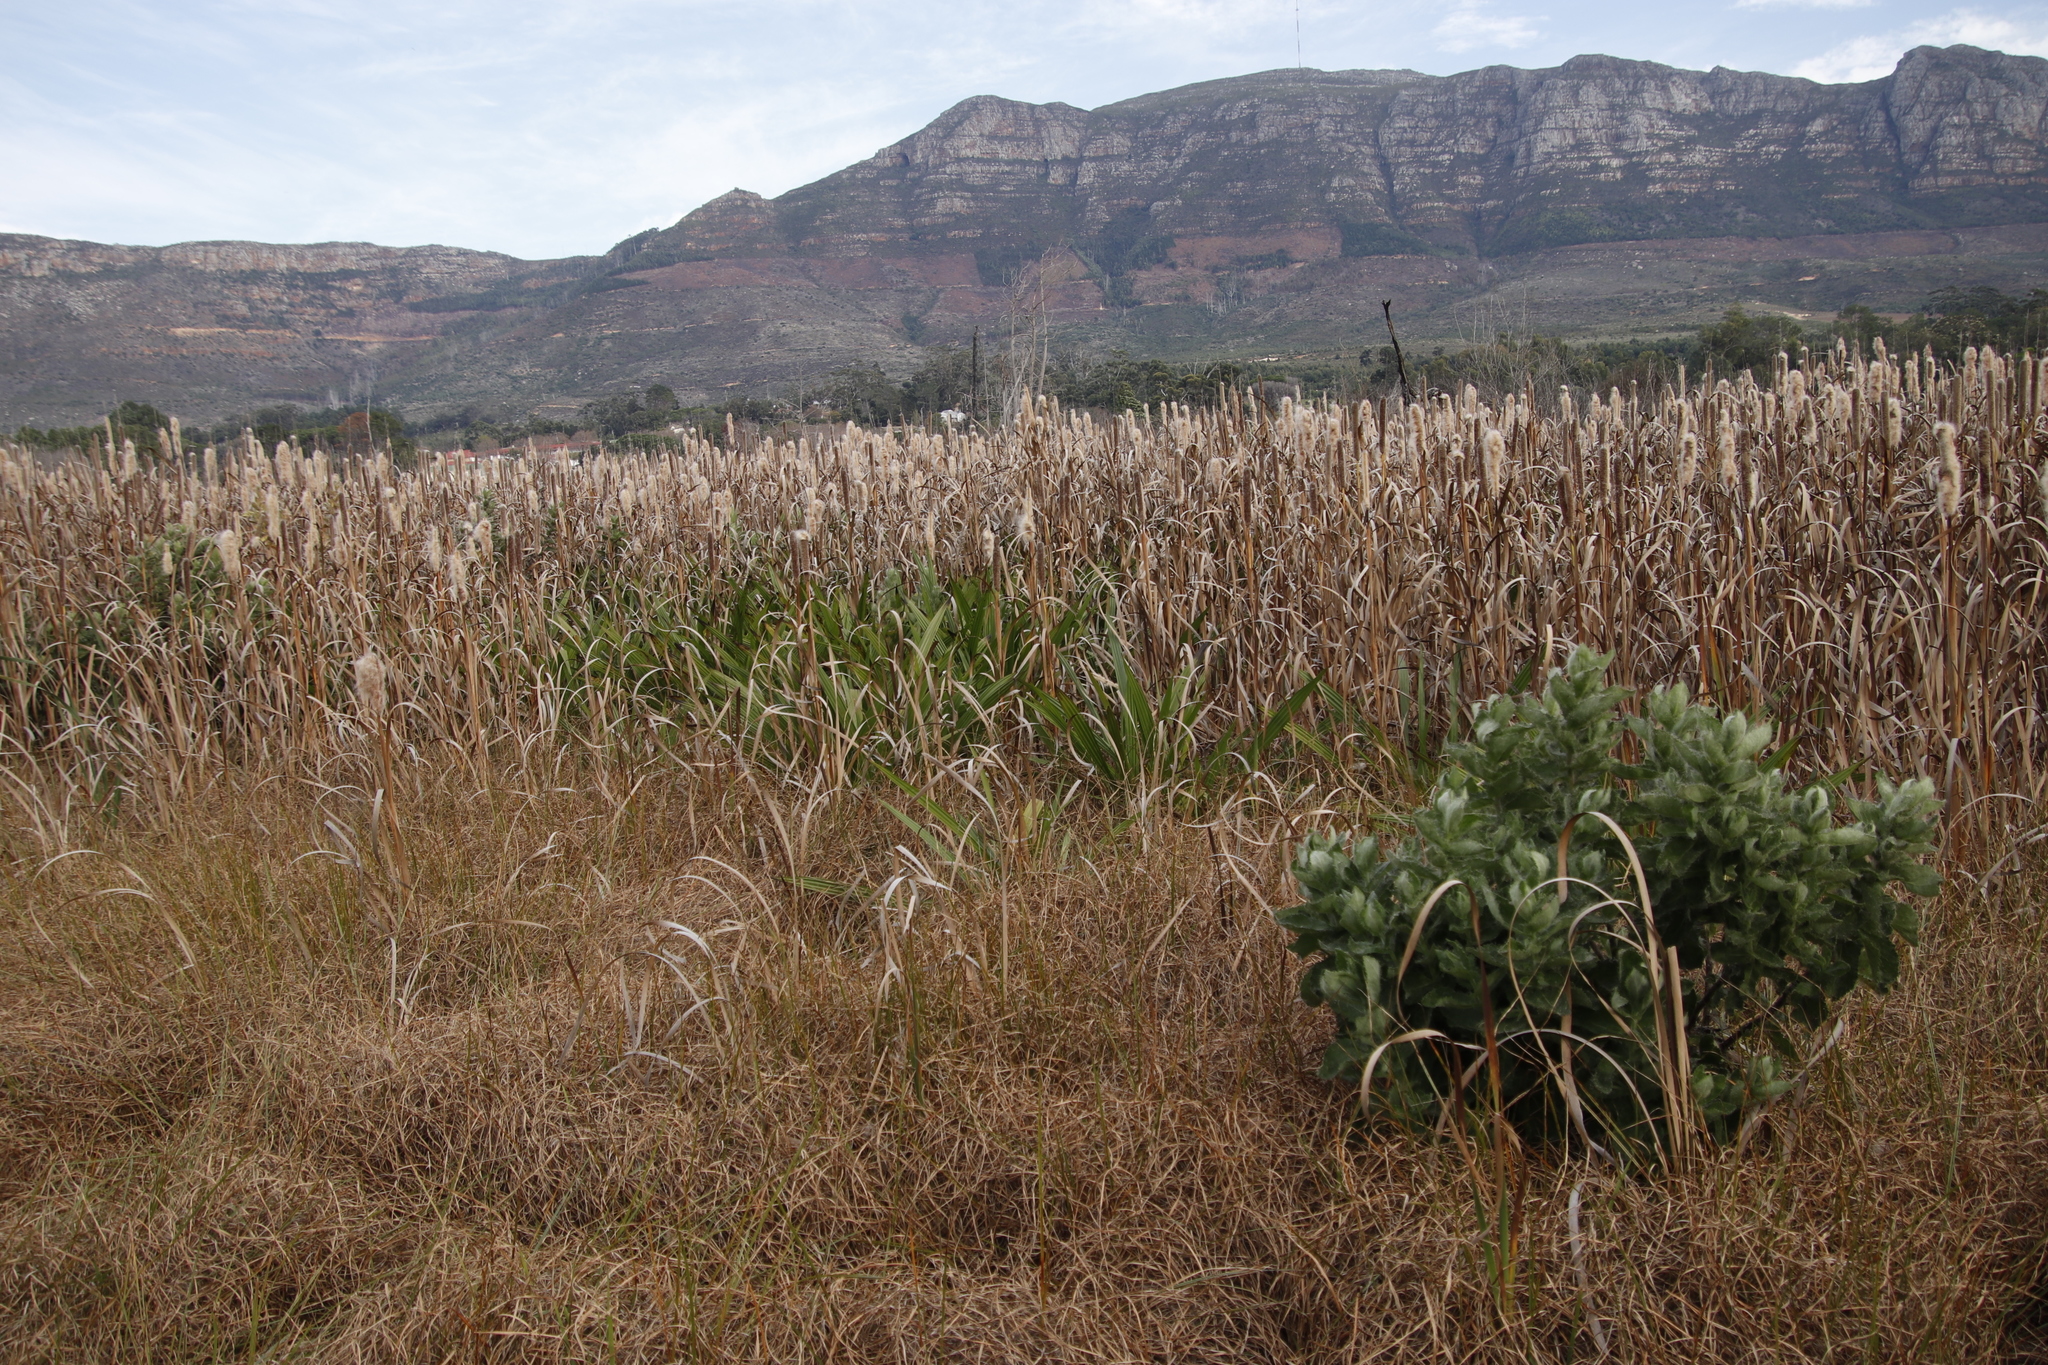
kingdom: Plantae
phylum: Tracheophyta
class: Liliopsida
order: Commelinales
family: Haemodoraceae
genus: Wachendorfia
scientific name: Wachendorfia paniculata
